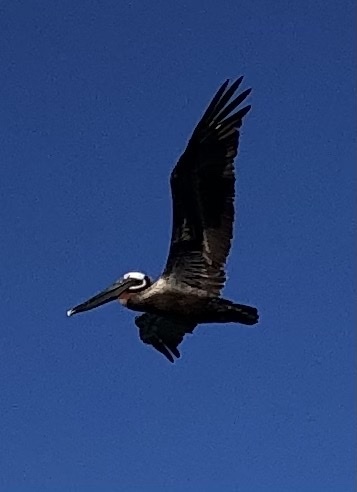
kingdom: Animalia
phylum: Chordata
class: Aves
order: Pelecaniformes
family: Pelecanidae
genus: Pelecanus
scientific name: Pelecanus occidentalis
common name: Brown pelican
